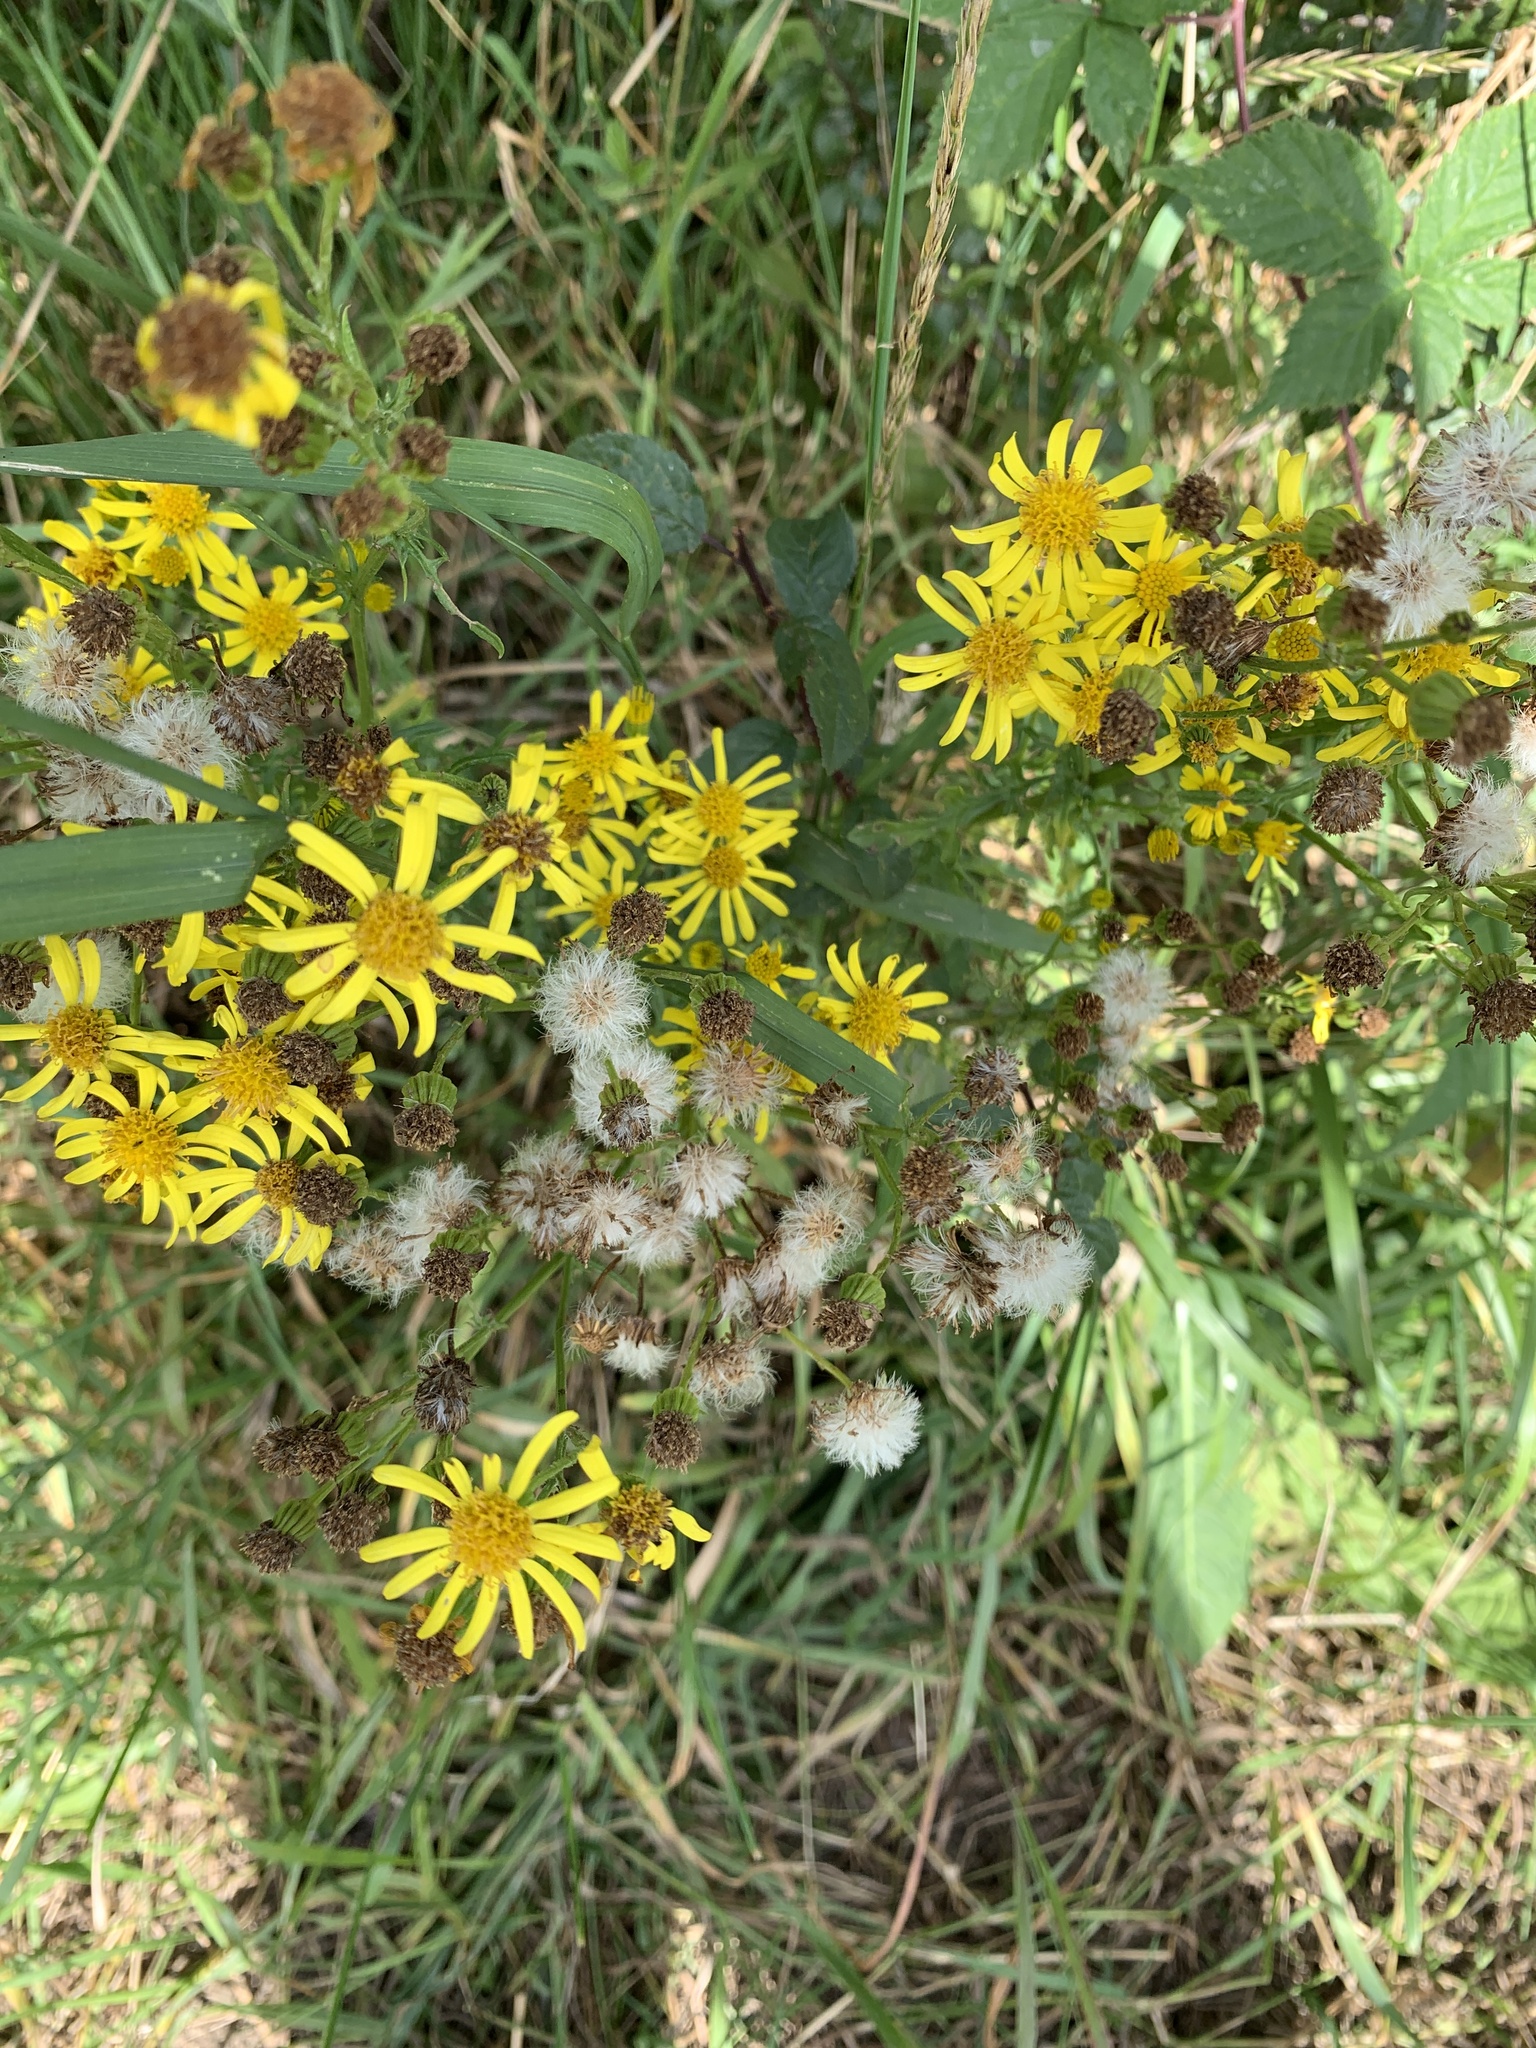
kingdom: Plantae
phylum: Tracheophyta
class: Magnoliopsida
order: Asterales
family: Asteraceae
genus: Jacobaea
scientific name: Jacobaea vulgaris
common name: Stinking willie
